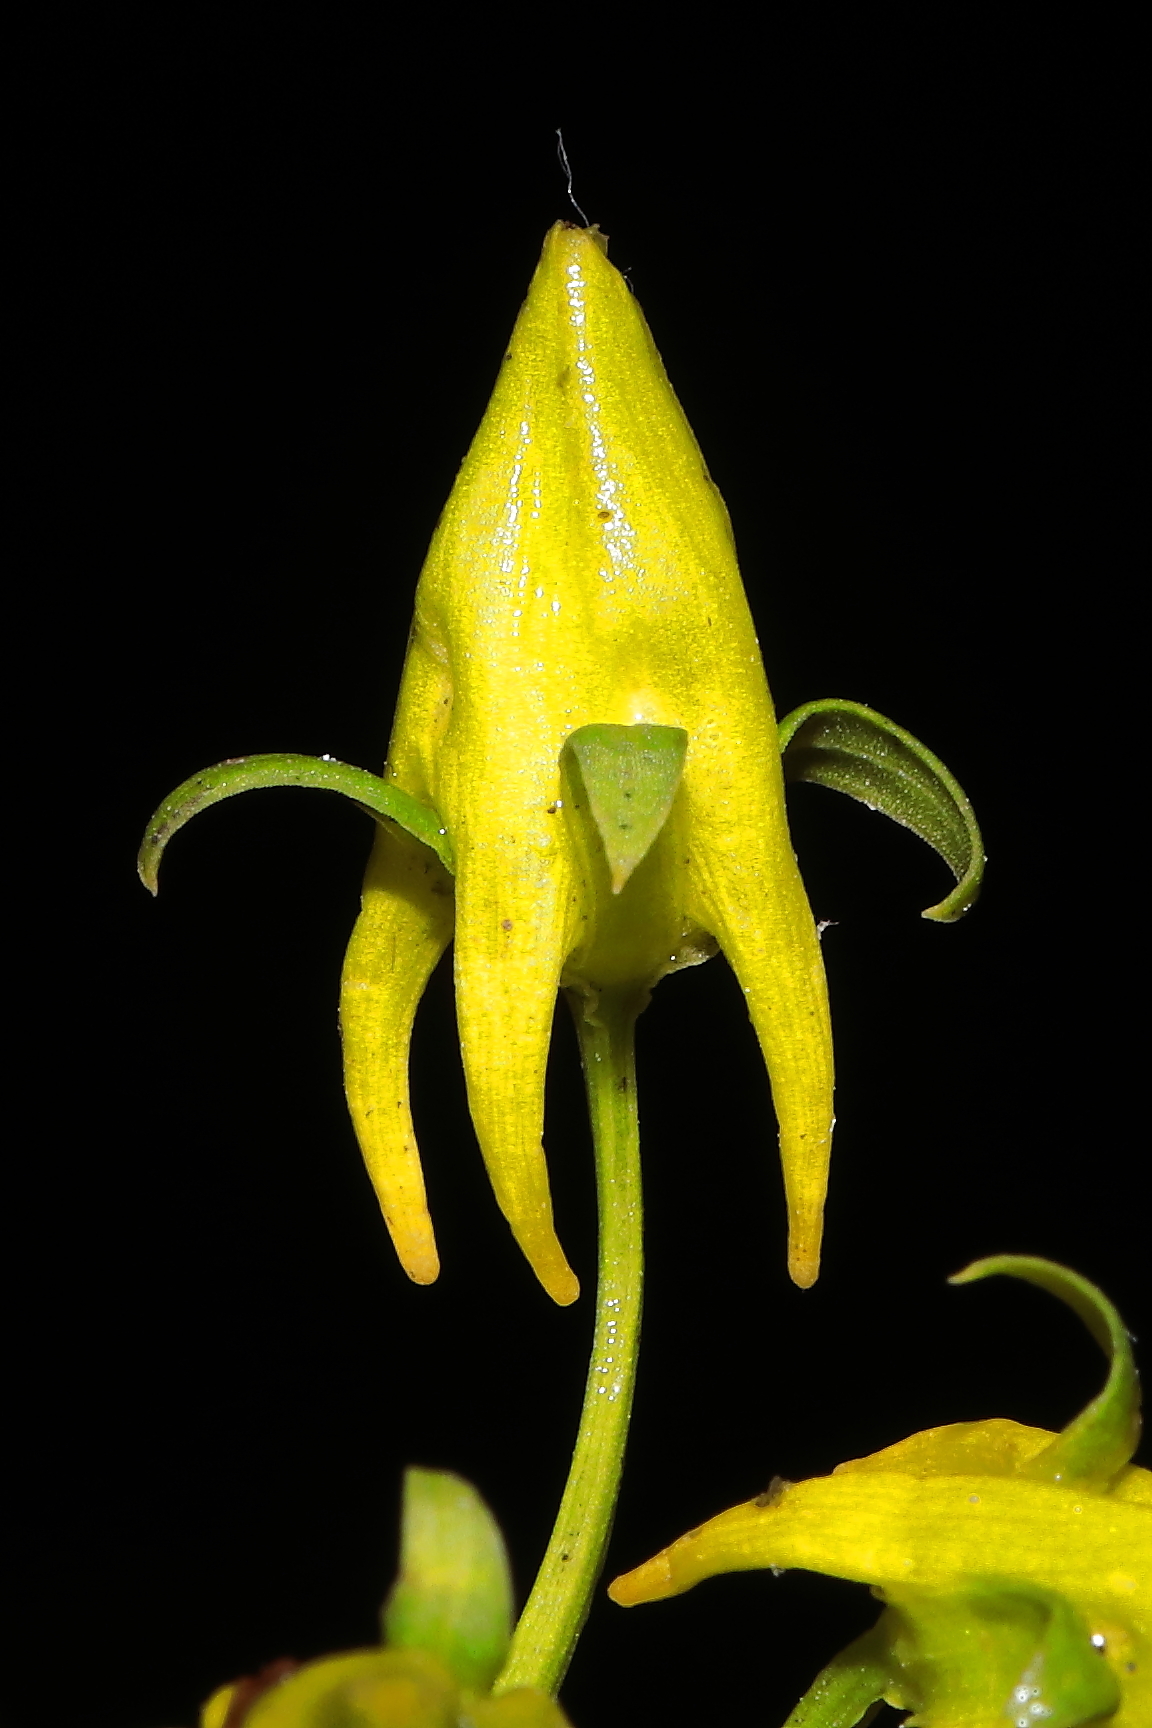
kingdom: Plantae
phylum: Tracheophyta
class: Magnoliopsida
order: Gentianales
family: Gentianaceae
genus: Halenia
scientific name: Halenia umbellata
